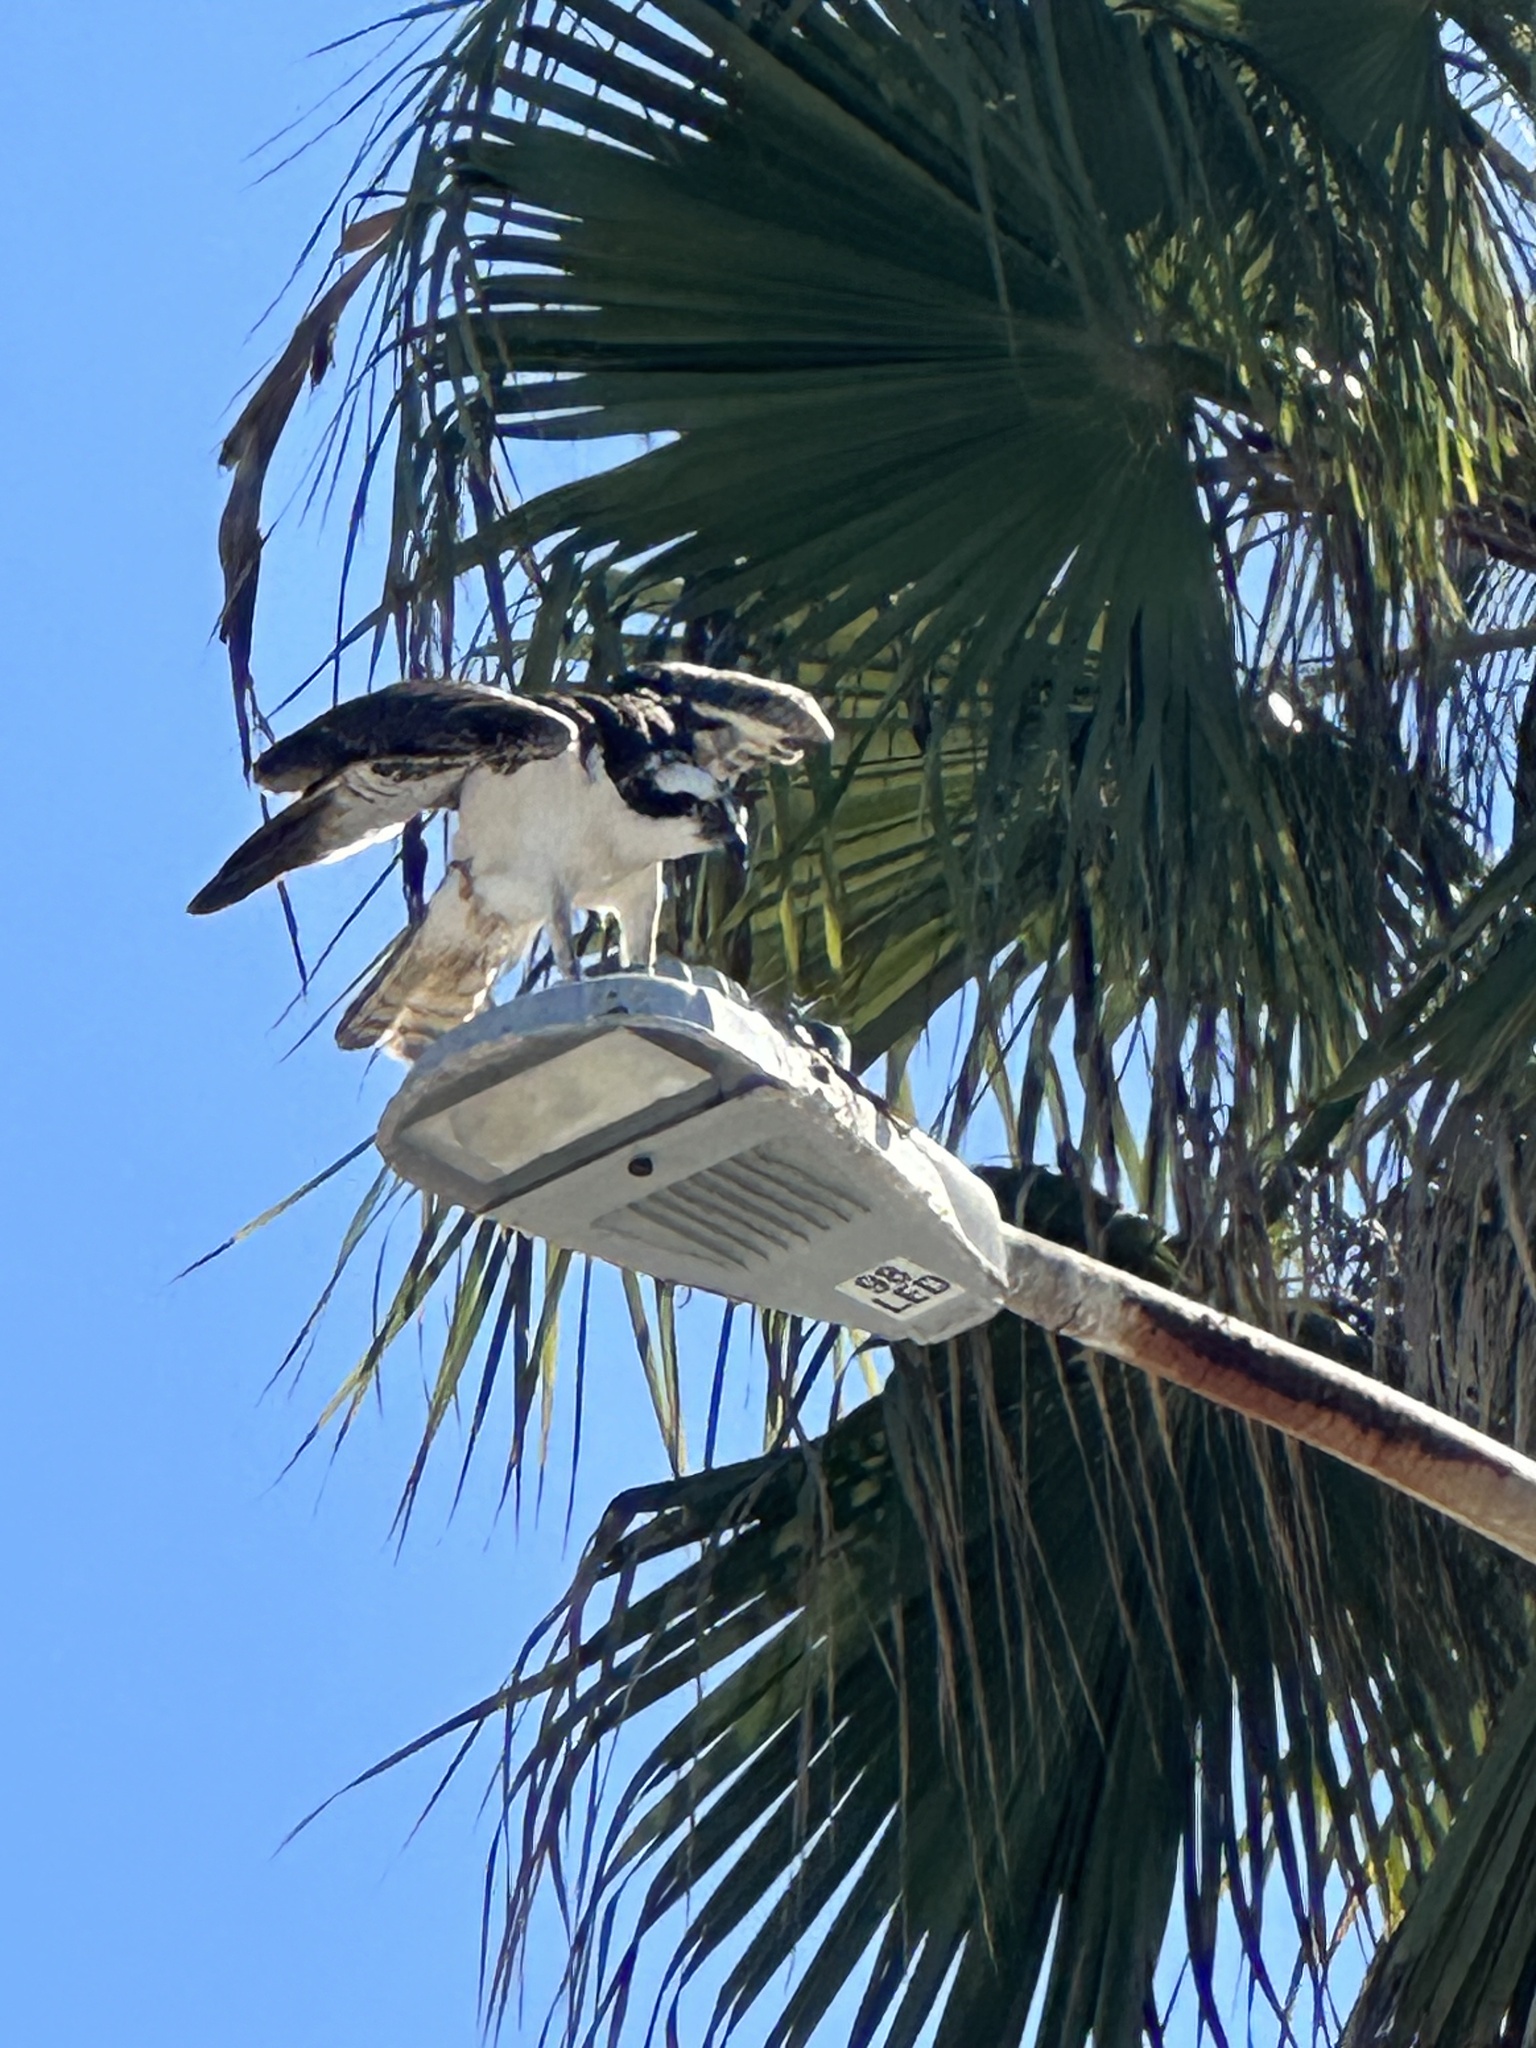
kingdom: Animalia
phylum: Chordata
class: Aves
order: Accipitriformes
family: Pandionidae
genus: Pandion
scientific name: Pandion haliaetus
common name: Osprey
